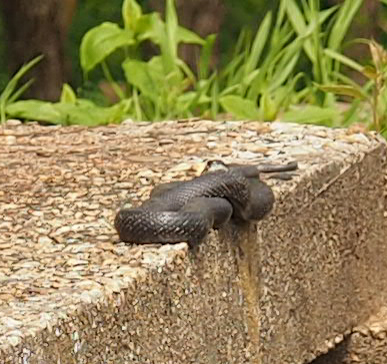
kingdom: Animalia
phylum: Chordata
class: Squamata
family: Colubridae
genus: Pantherophis
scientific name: Pantherophis alleghaniensis
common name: Eastern rat snake
